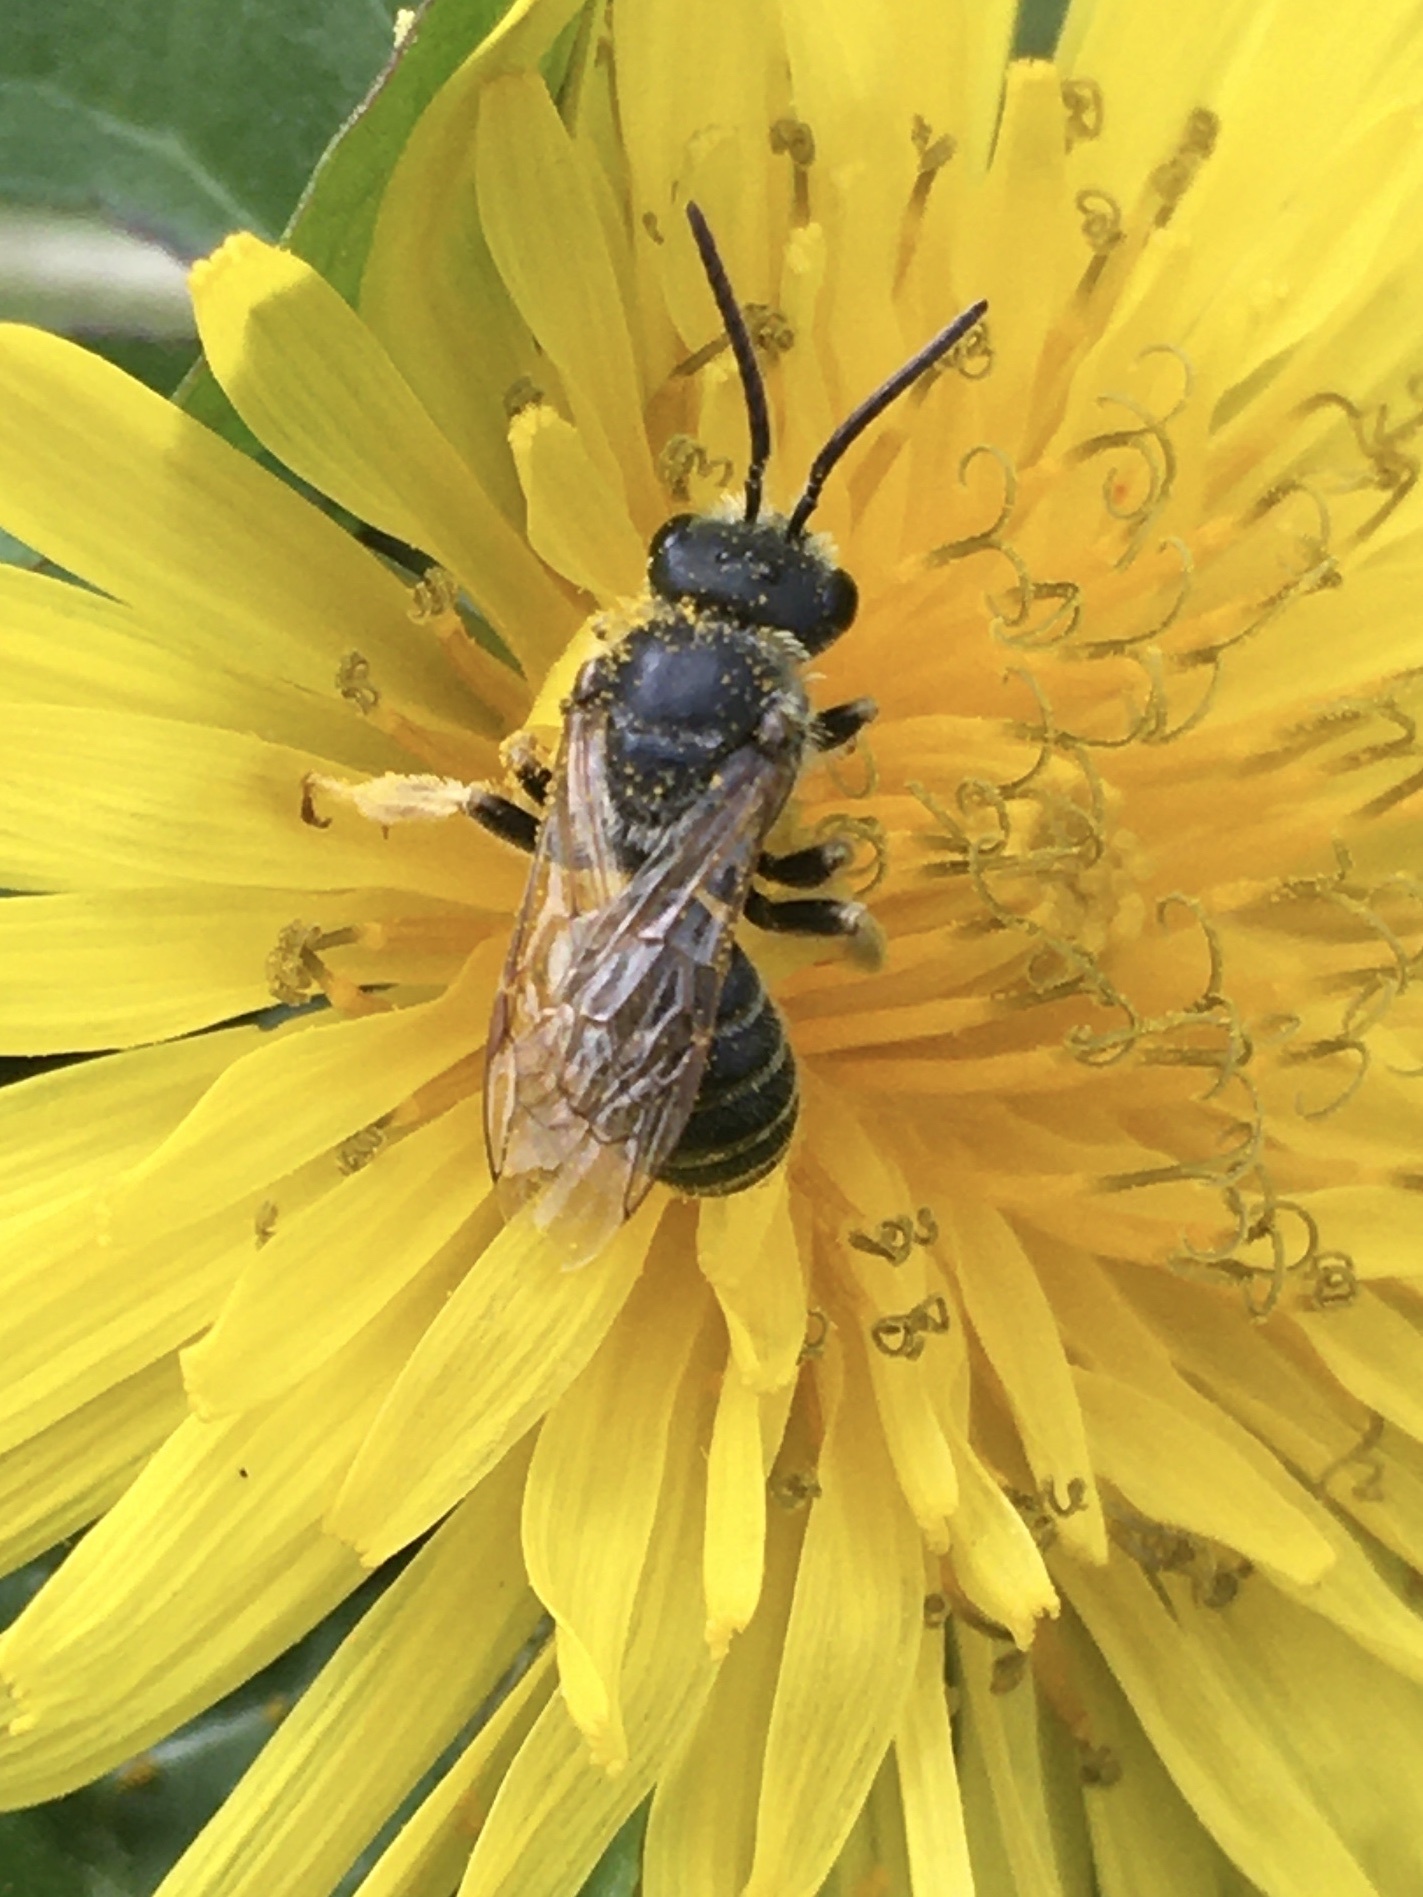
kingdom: Animalia
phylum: Arthropoda
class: Insecta
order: Hymenoptera
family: Halictidae
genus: Halictus
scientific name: Halictus ligatus
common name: Ligated furrow bee
